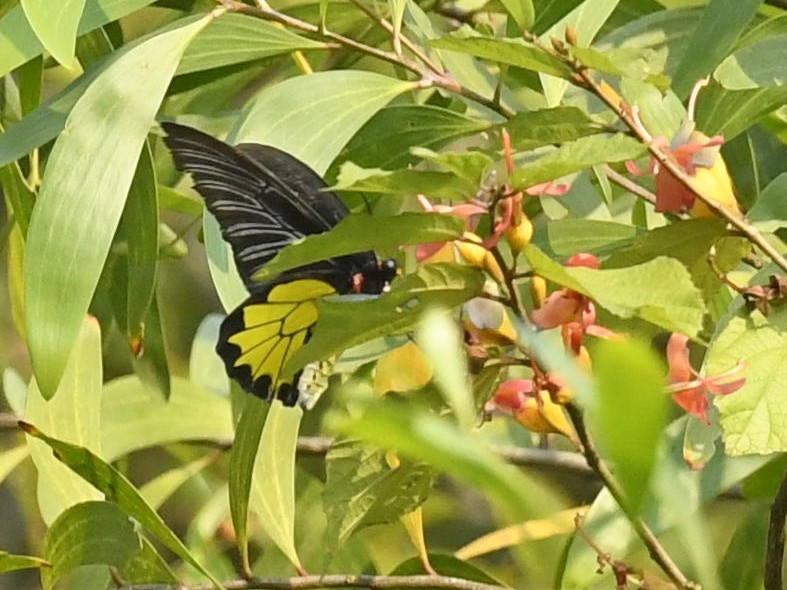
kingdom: Animalia
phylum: Arthropoda
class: Insecta
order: Lepidoptera
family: Papilionidae
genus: Troides
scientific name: Troides minos
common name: Malabar birdwing
